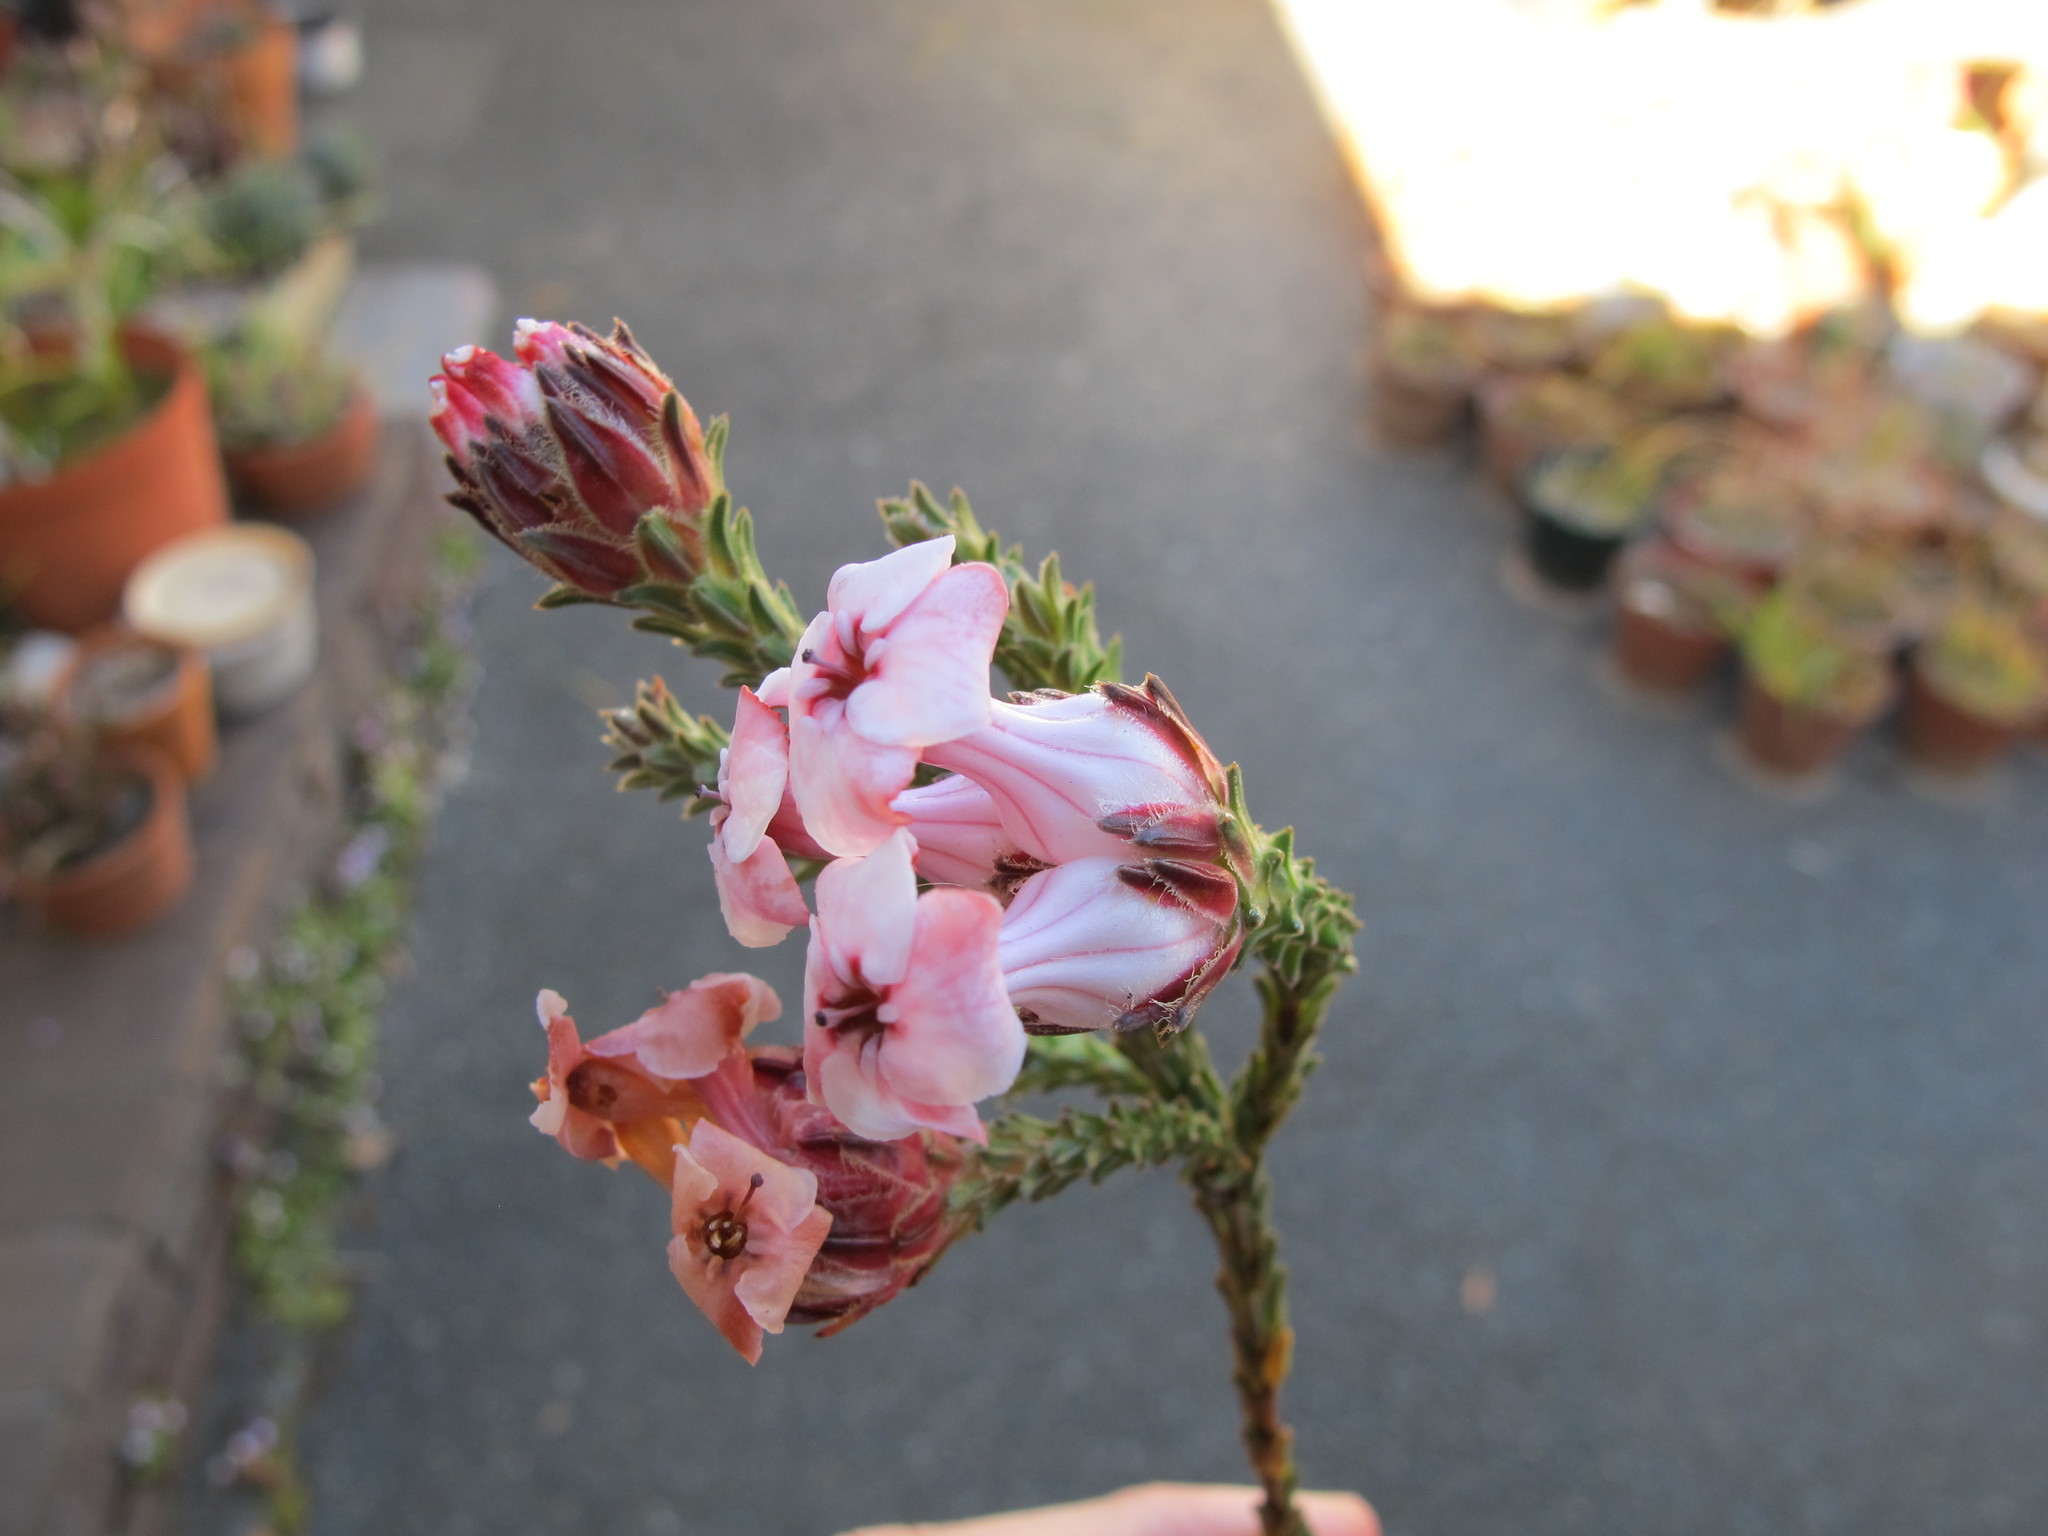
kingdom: Plantae
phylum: Tracheophyta
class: Magnoliopsida
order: Ericales
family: Ericaceae
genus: Erica
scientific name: Erica ampullacea
